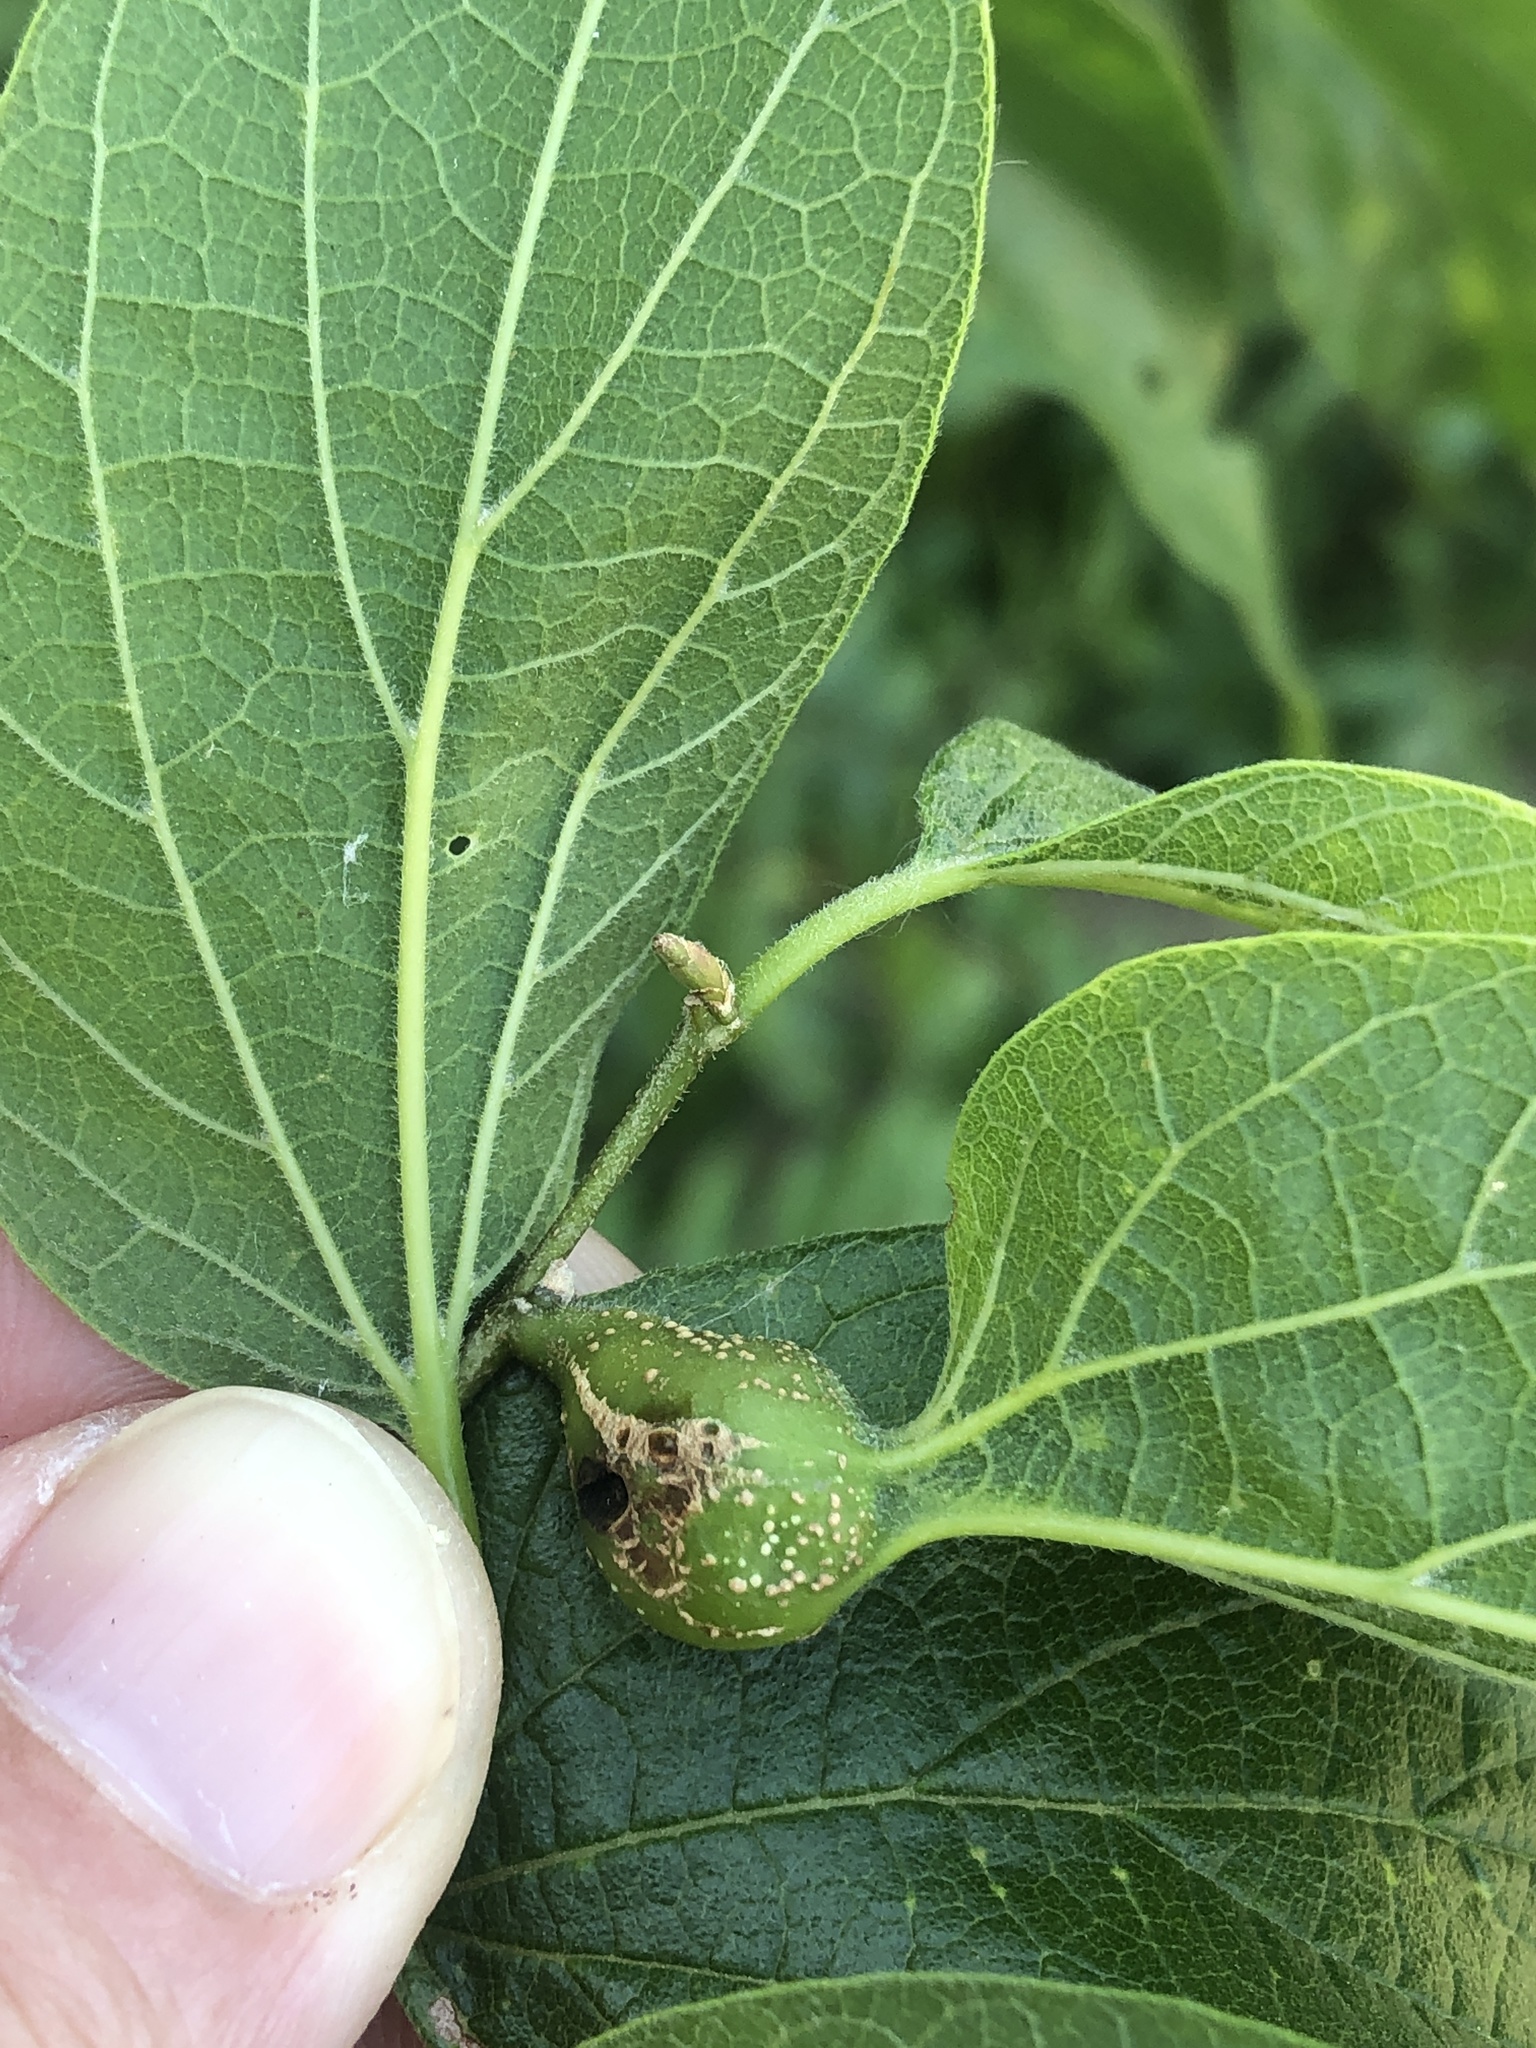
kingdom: Animalia
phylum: Arthropoda
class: Insecta
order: Hemiptera
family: Aphalaridae
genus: Pachypsylla
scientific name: Pachypsylla venusta
